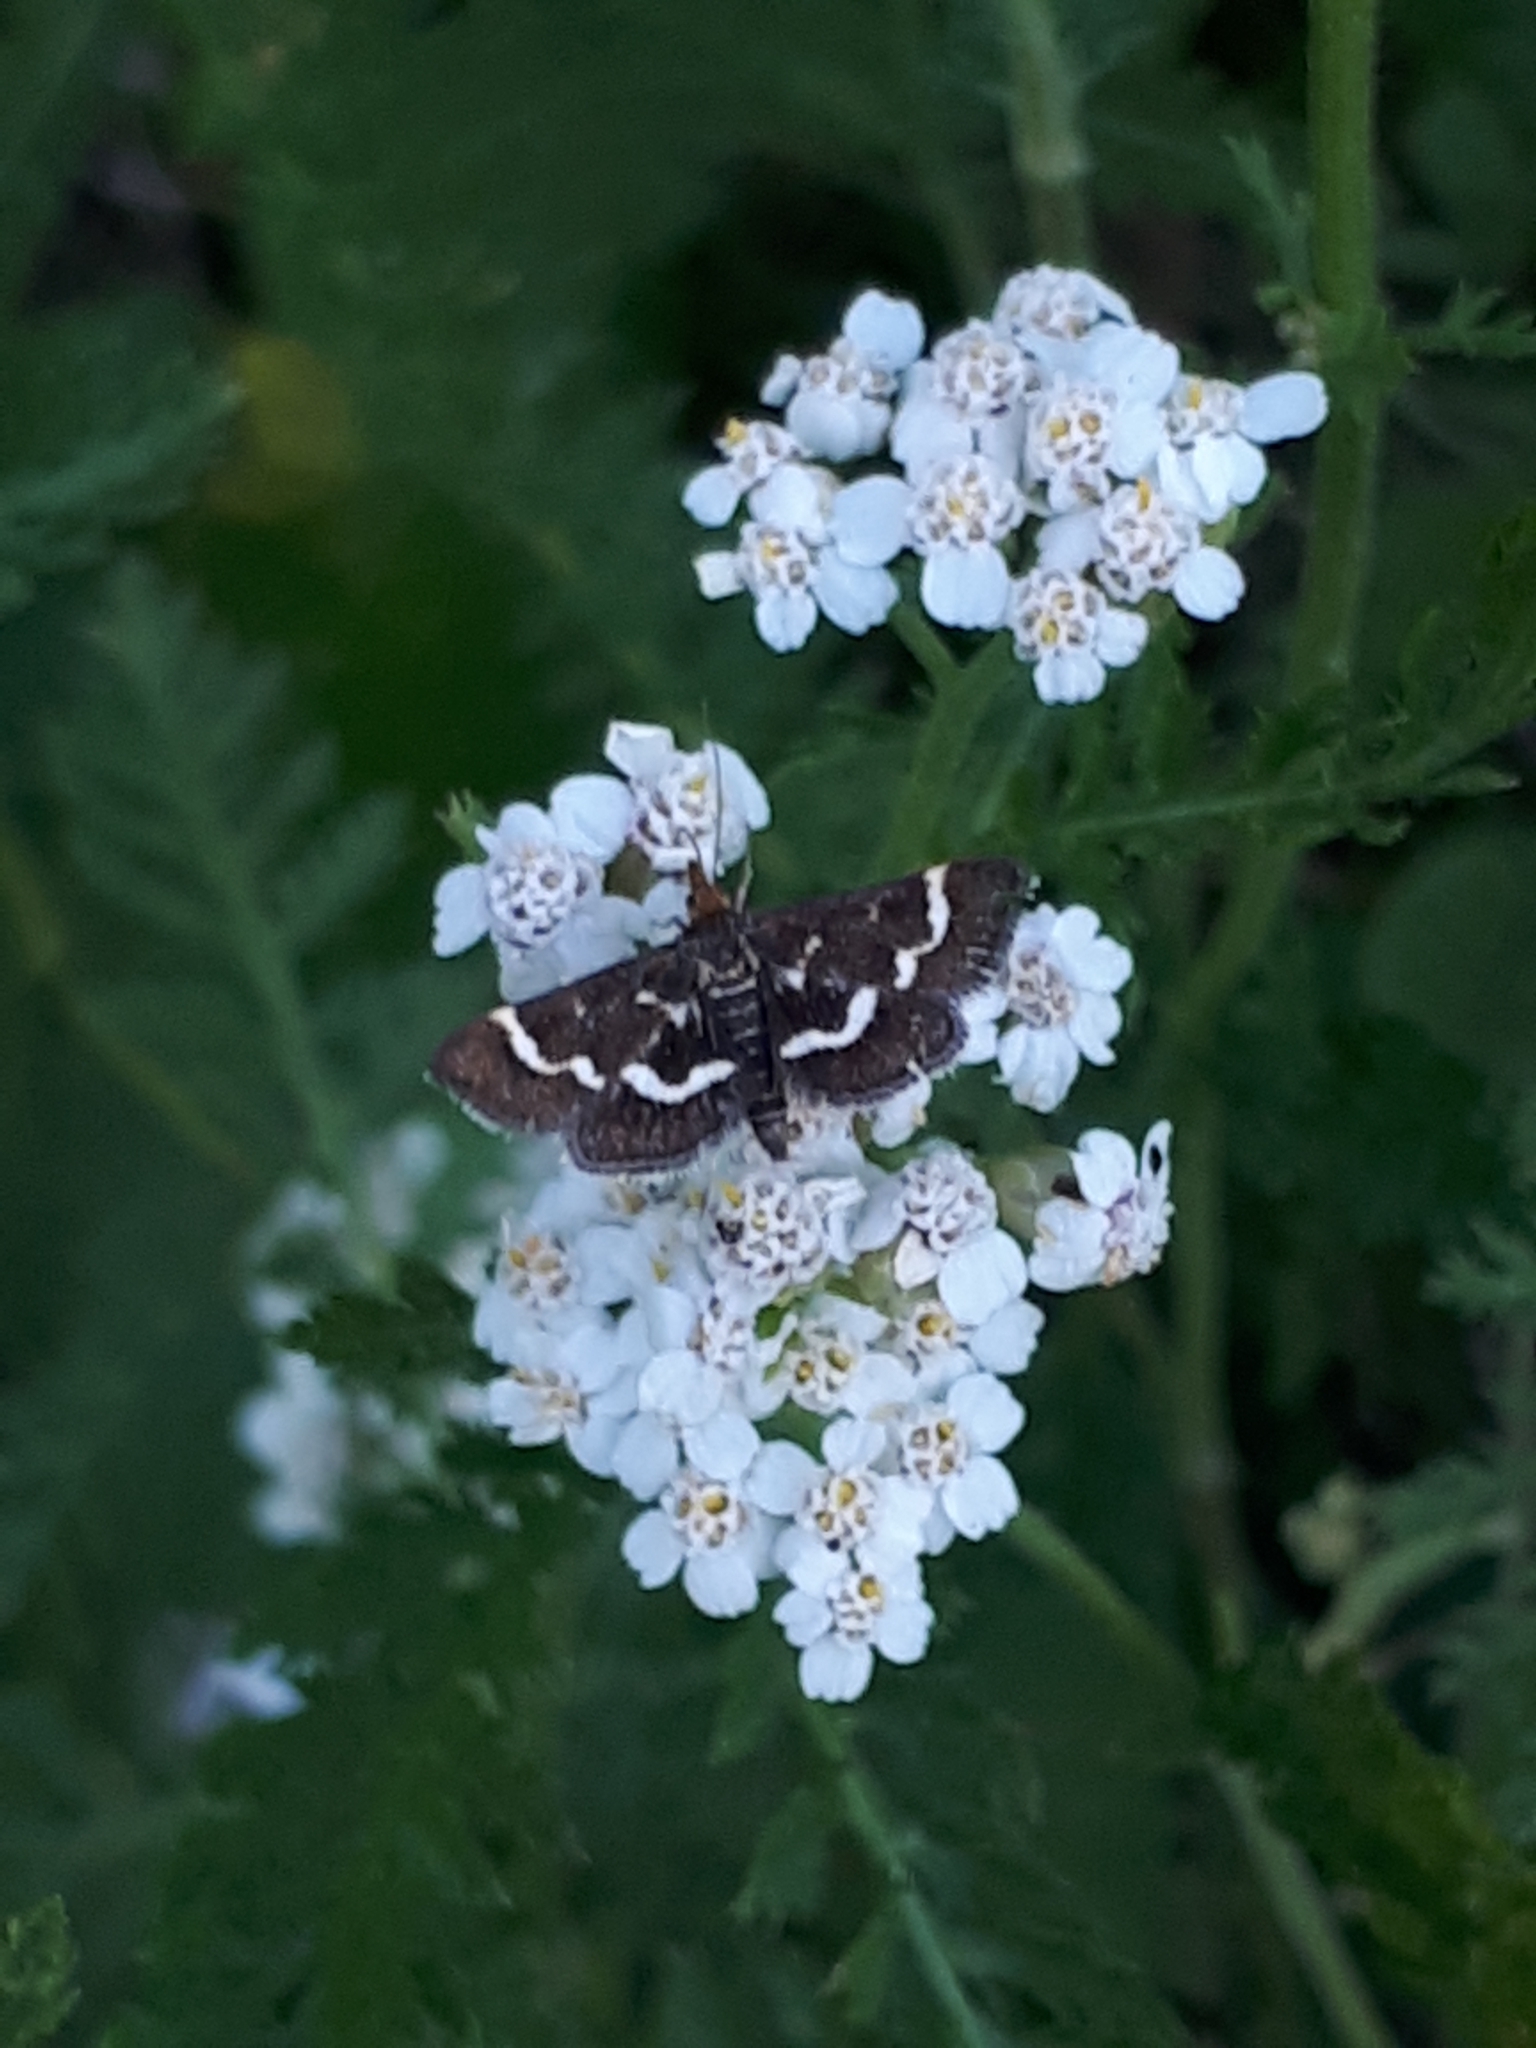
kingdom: Animalia
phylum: Arthropoda
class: Insecta
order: Lepidoptera
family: Crambidae
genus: Pyrausta
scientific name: Pyrausta nigrata
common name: Wavy-barred sable
